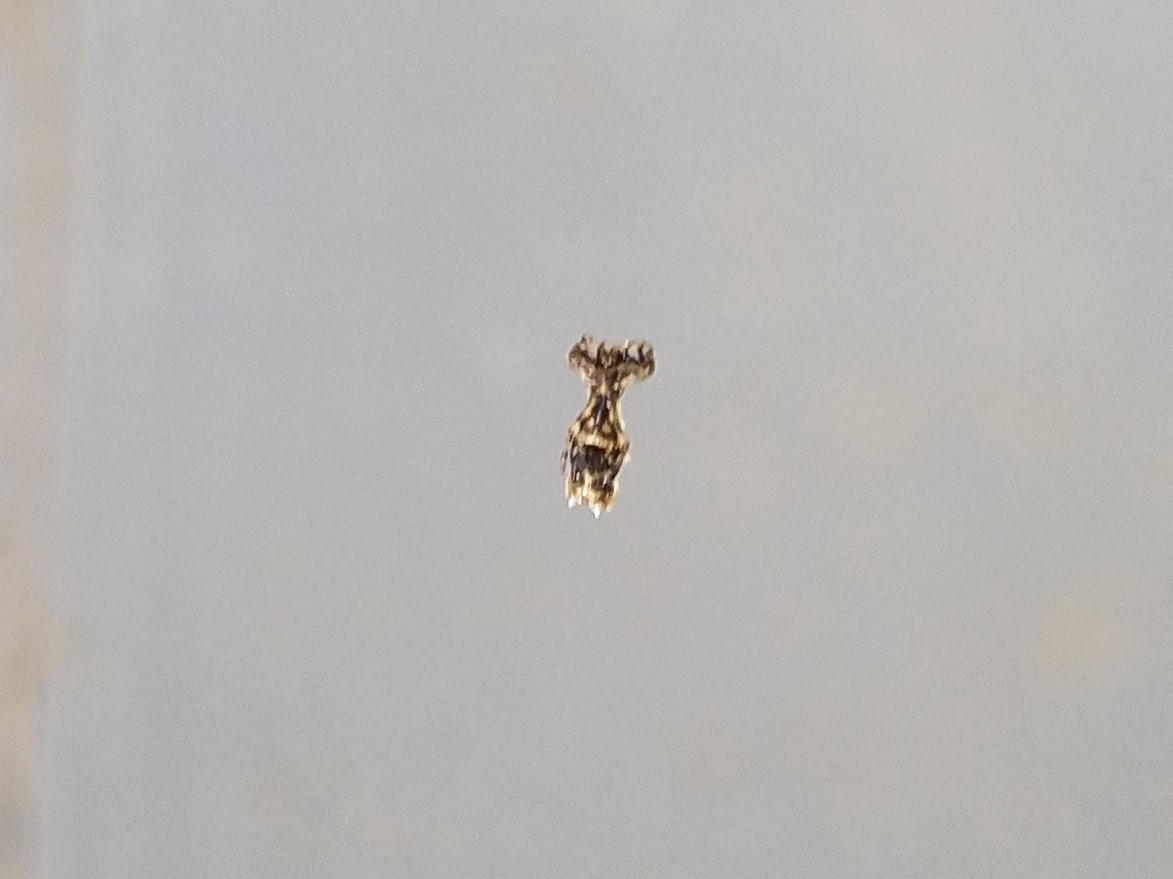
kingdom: Animalia
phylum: Arthropoda
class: Arachnida
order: Araneae
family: Araneidae
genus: Micrathena
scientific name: Micrathena gracilis
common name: Orb weavers
